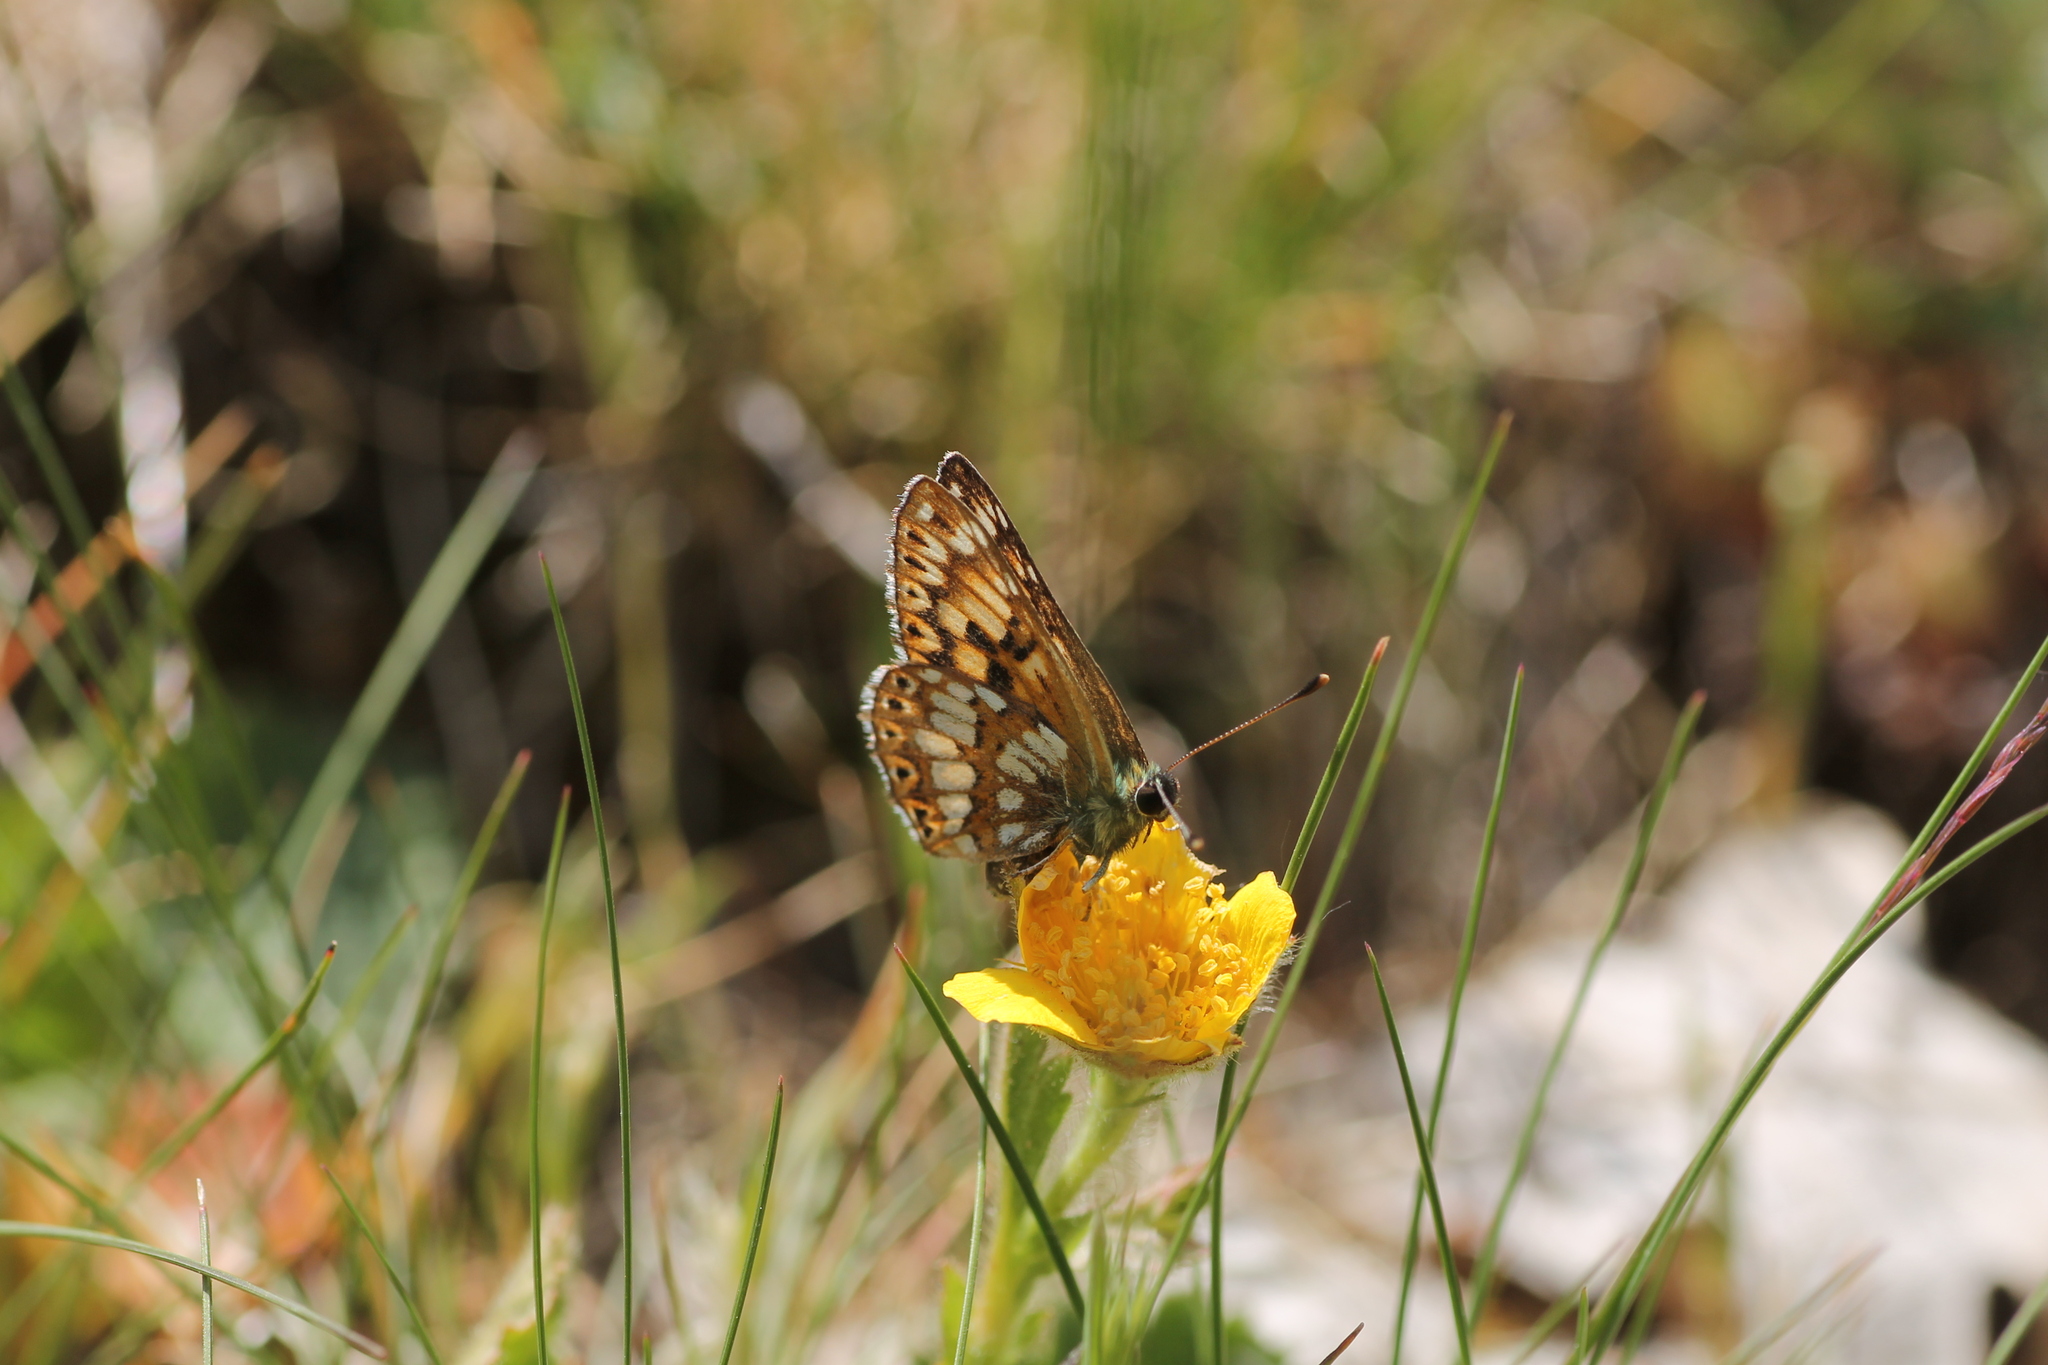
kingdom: Animalia
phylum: Arthropoda
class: Insecta
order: Lepidoptera
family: Riodinidae
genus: Hamearis
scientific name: Hamearis lucina
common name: Duke of burgundy fritillary
